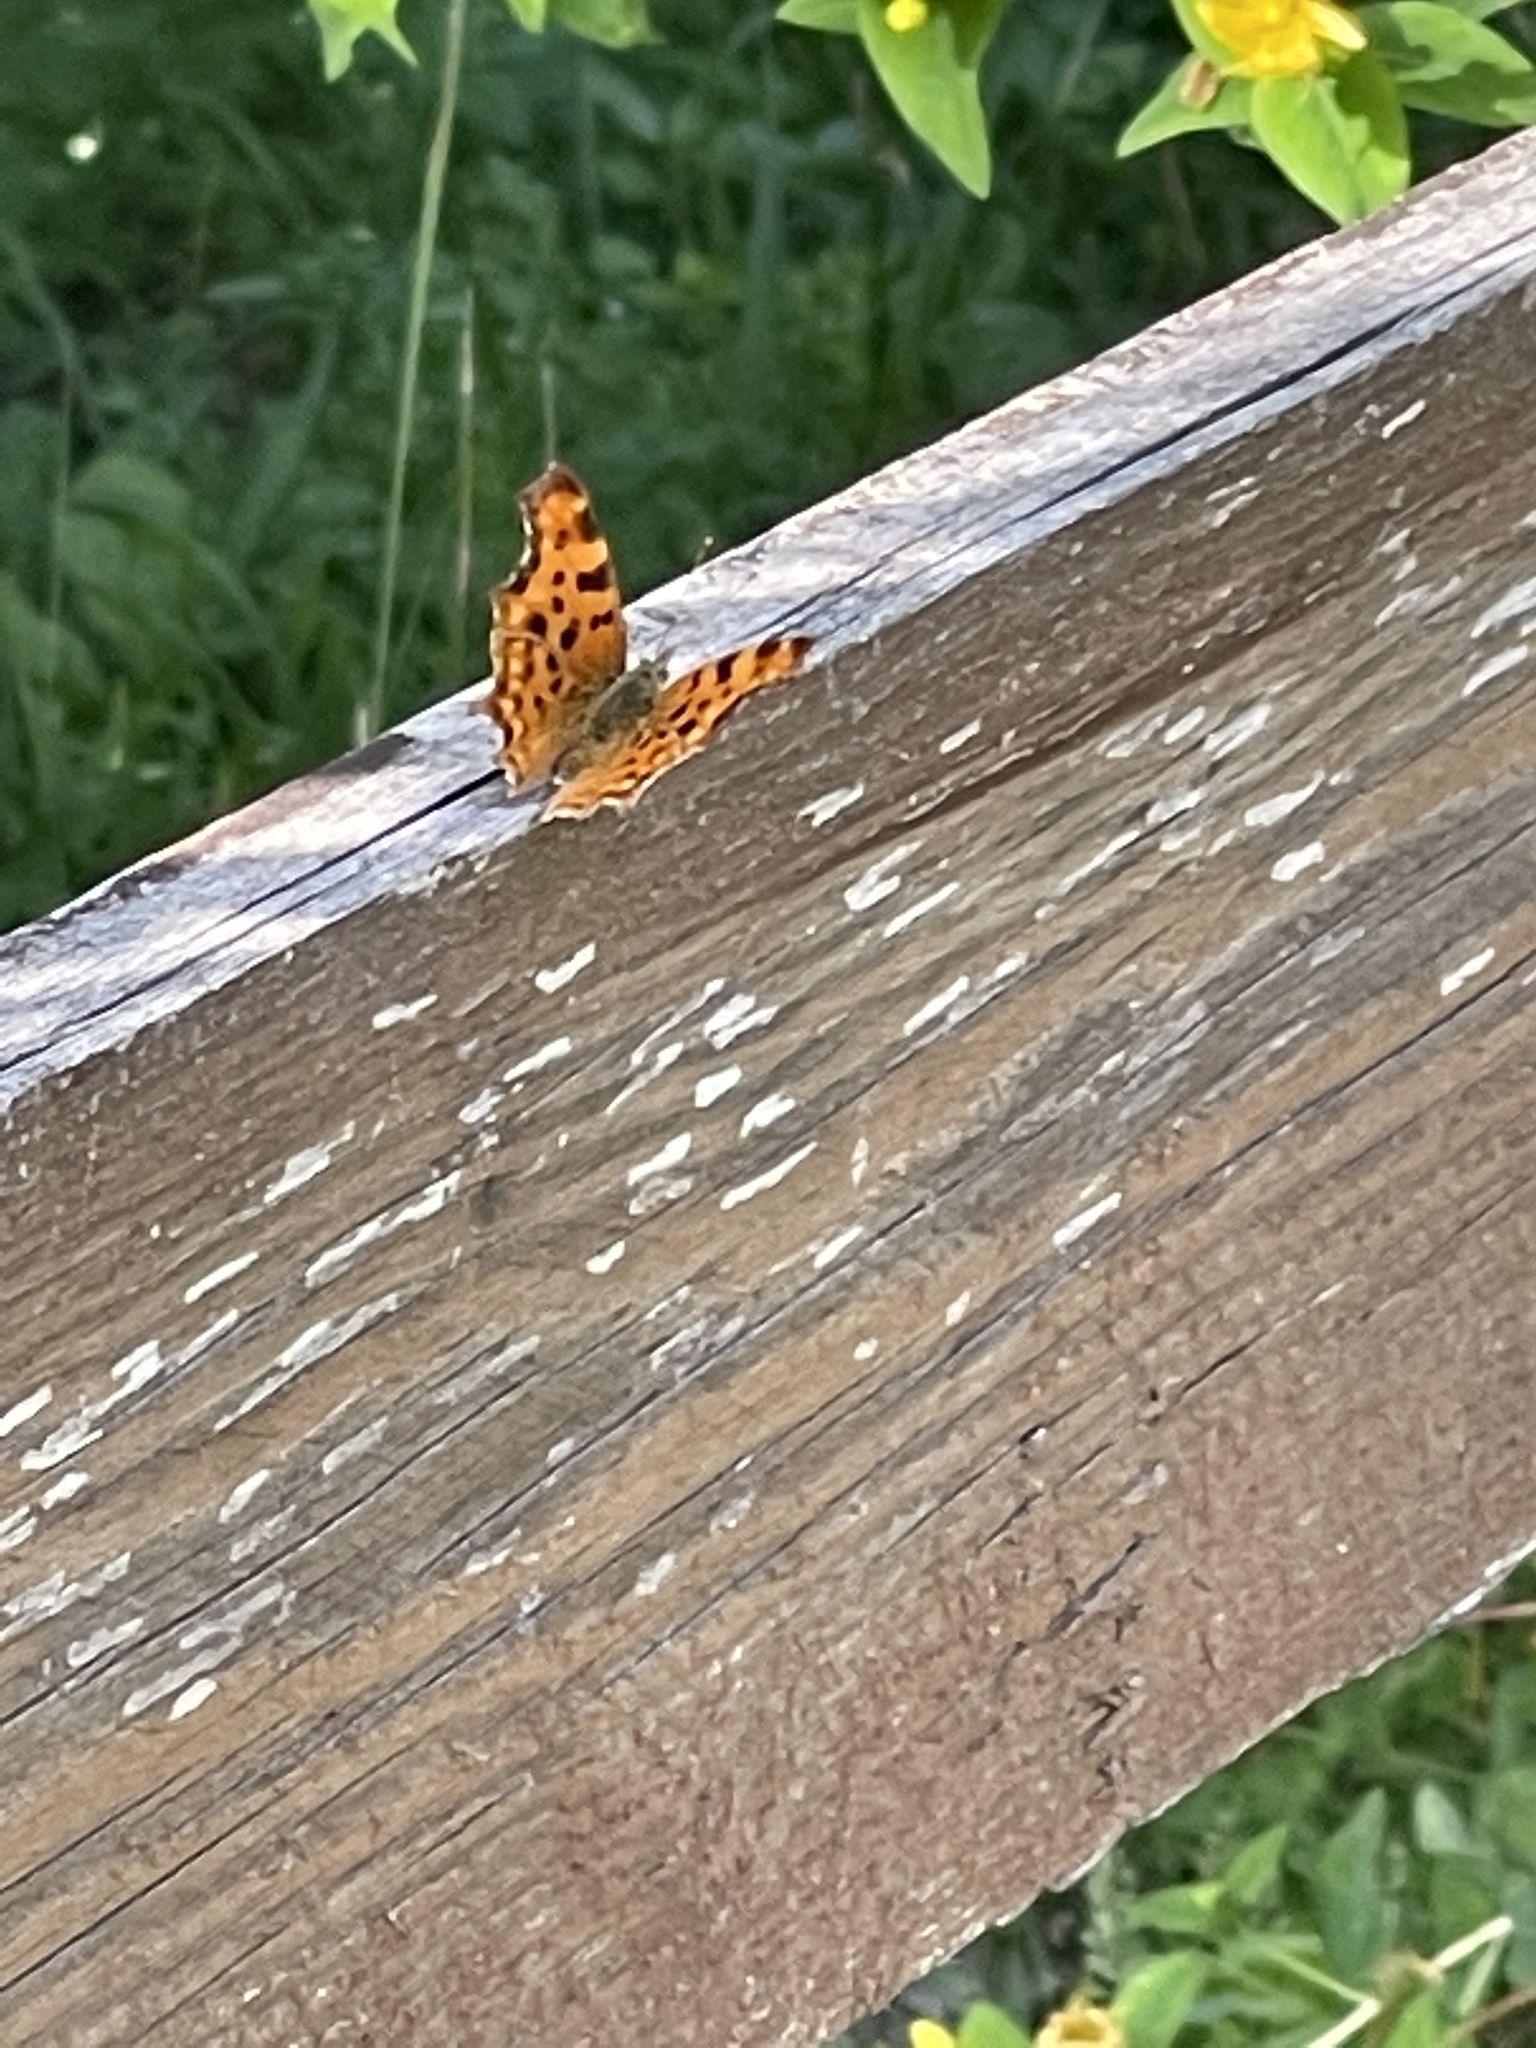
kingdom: Animalia
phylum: Arthropoda
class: Insecta
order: Lepidoptera
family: Nymphalidae
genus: Polygonia
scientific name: Polygonia c-album
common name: Comma
